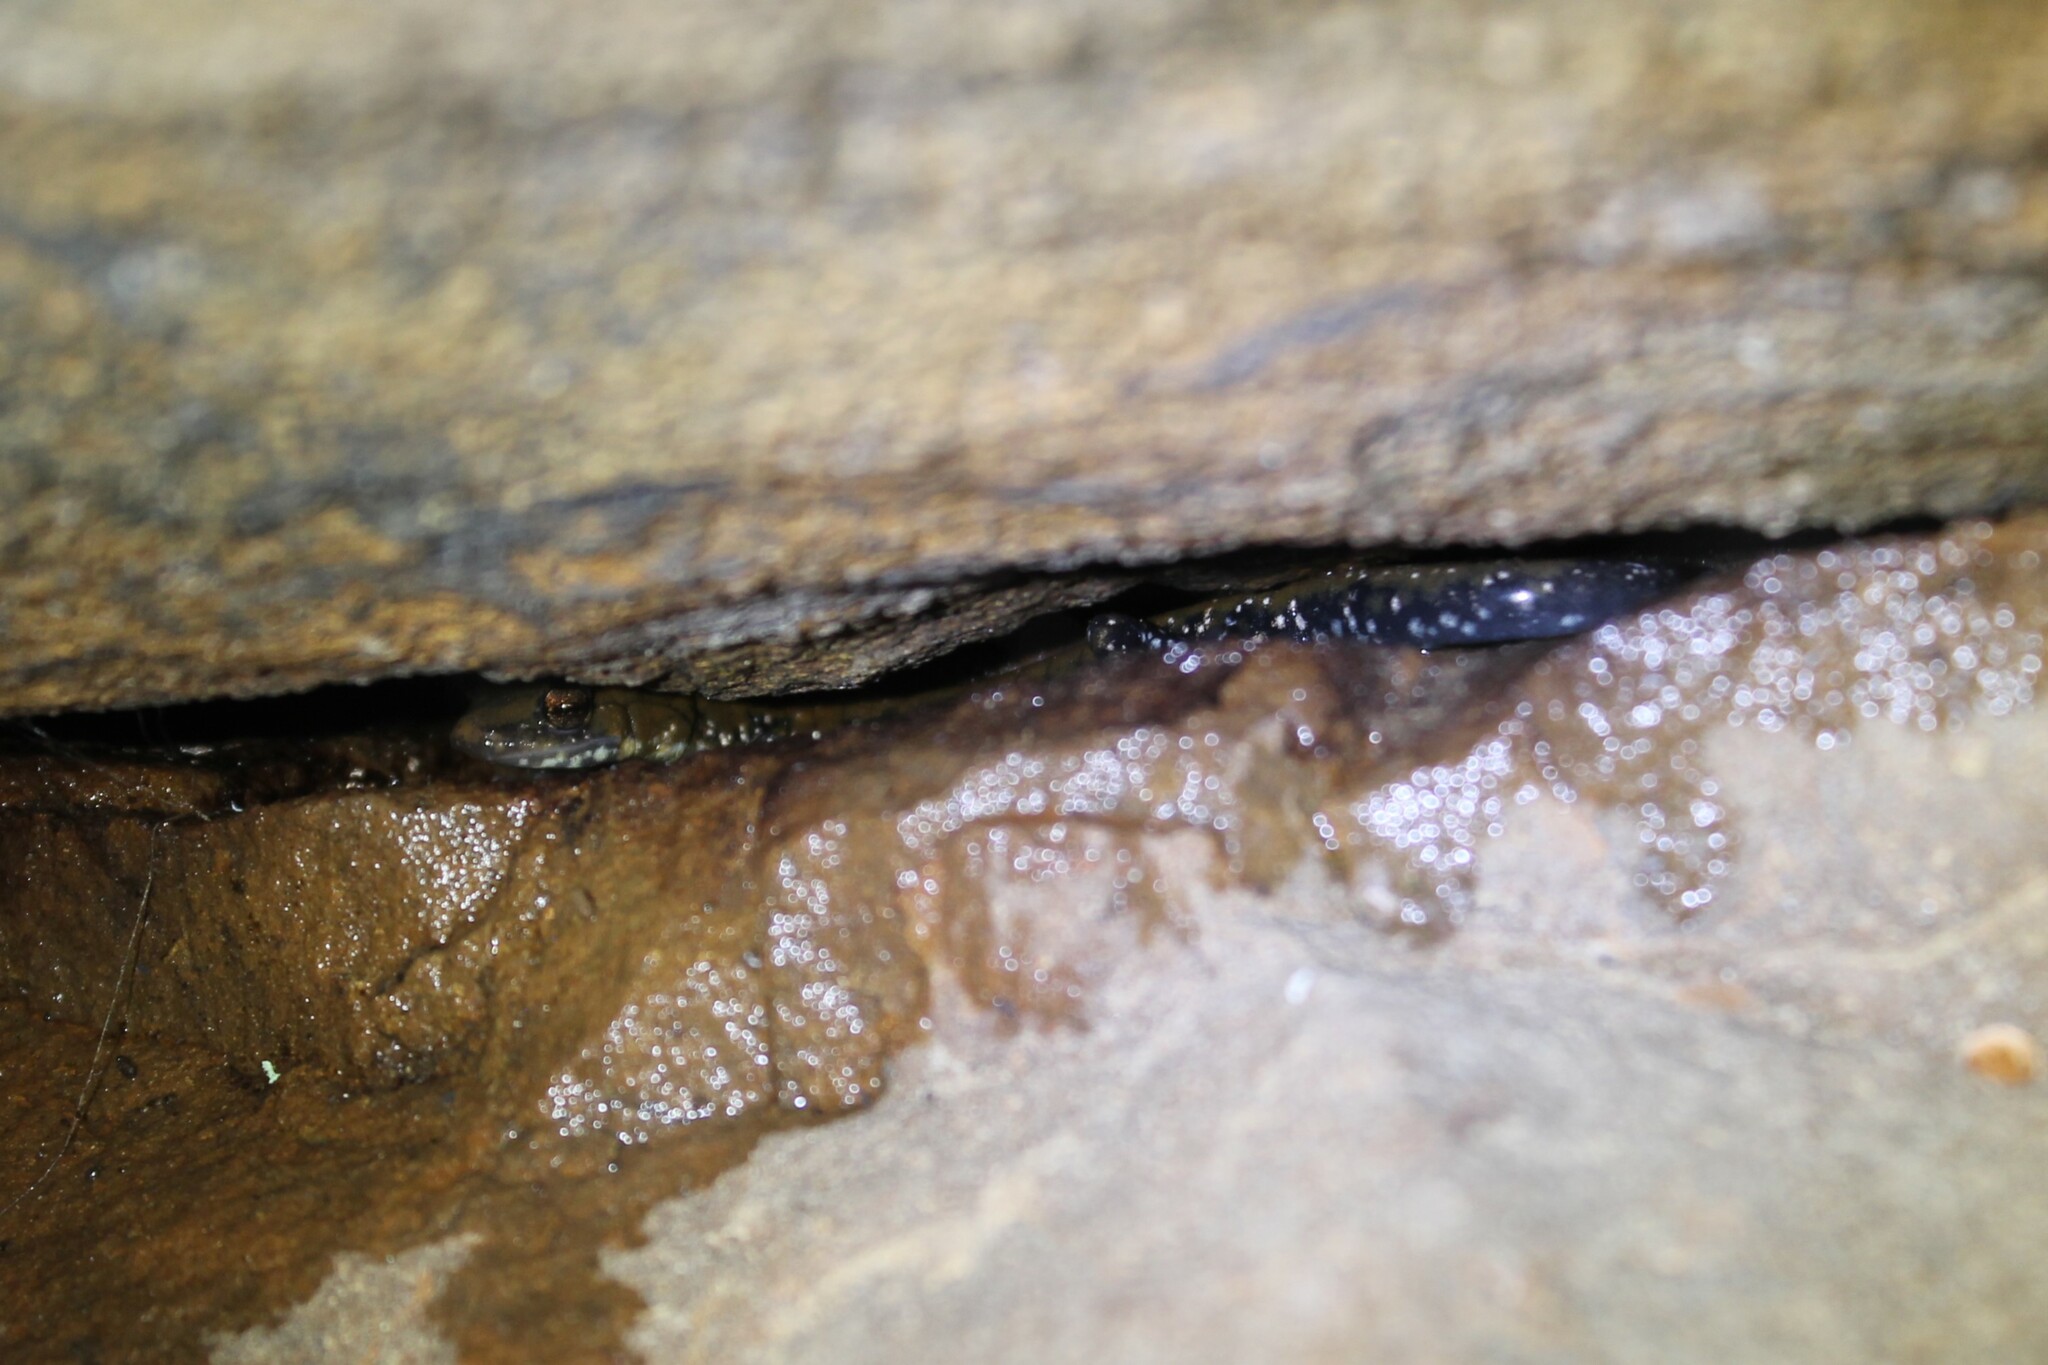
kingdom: Animalia
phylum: Chordata
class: Amphibia
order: Caudata
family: Plethodontidae
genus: Plethodon
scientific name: Plethodon petraeus
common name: Pigeon mountain salamander
